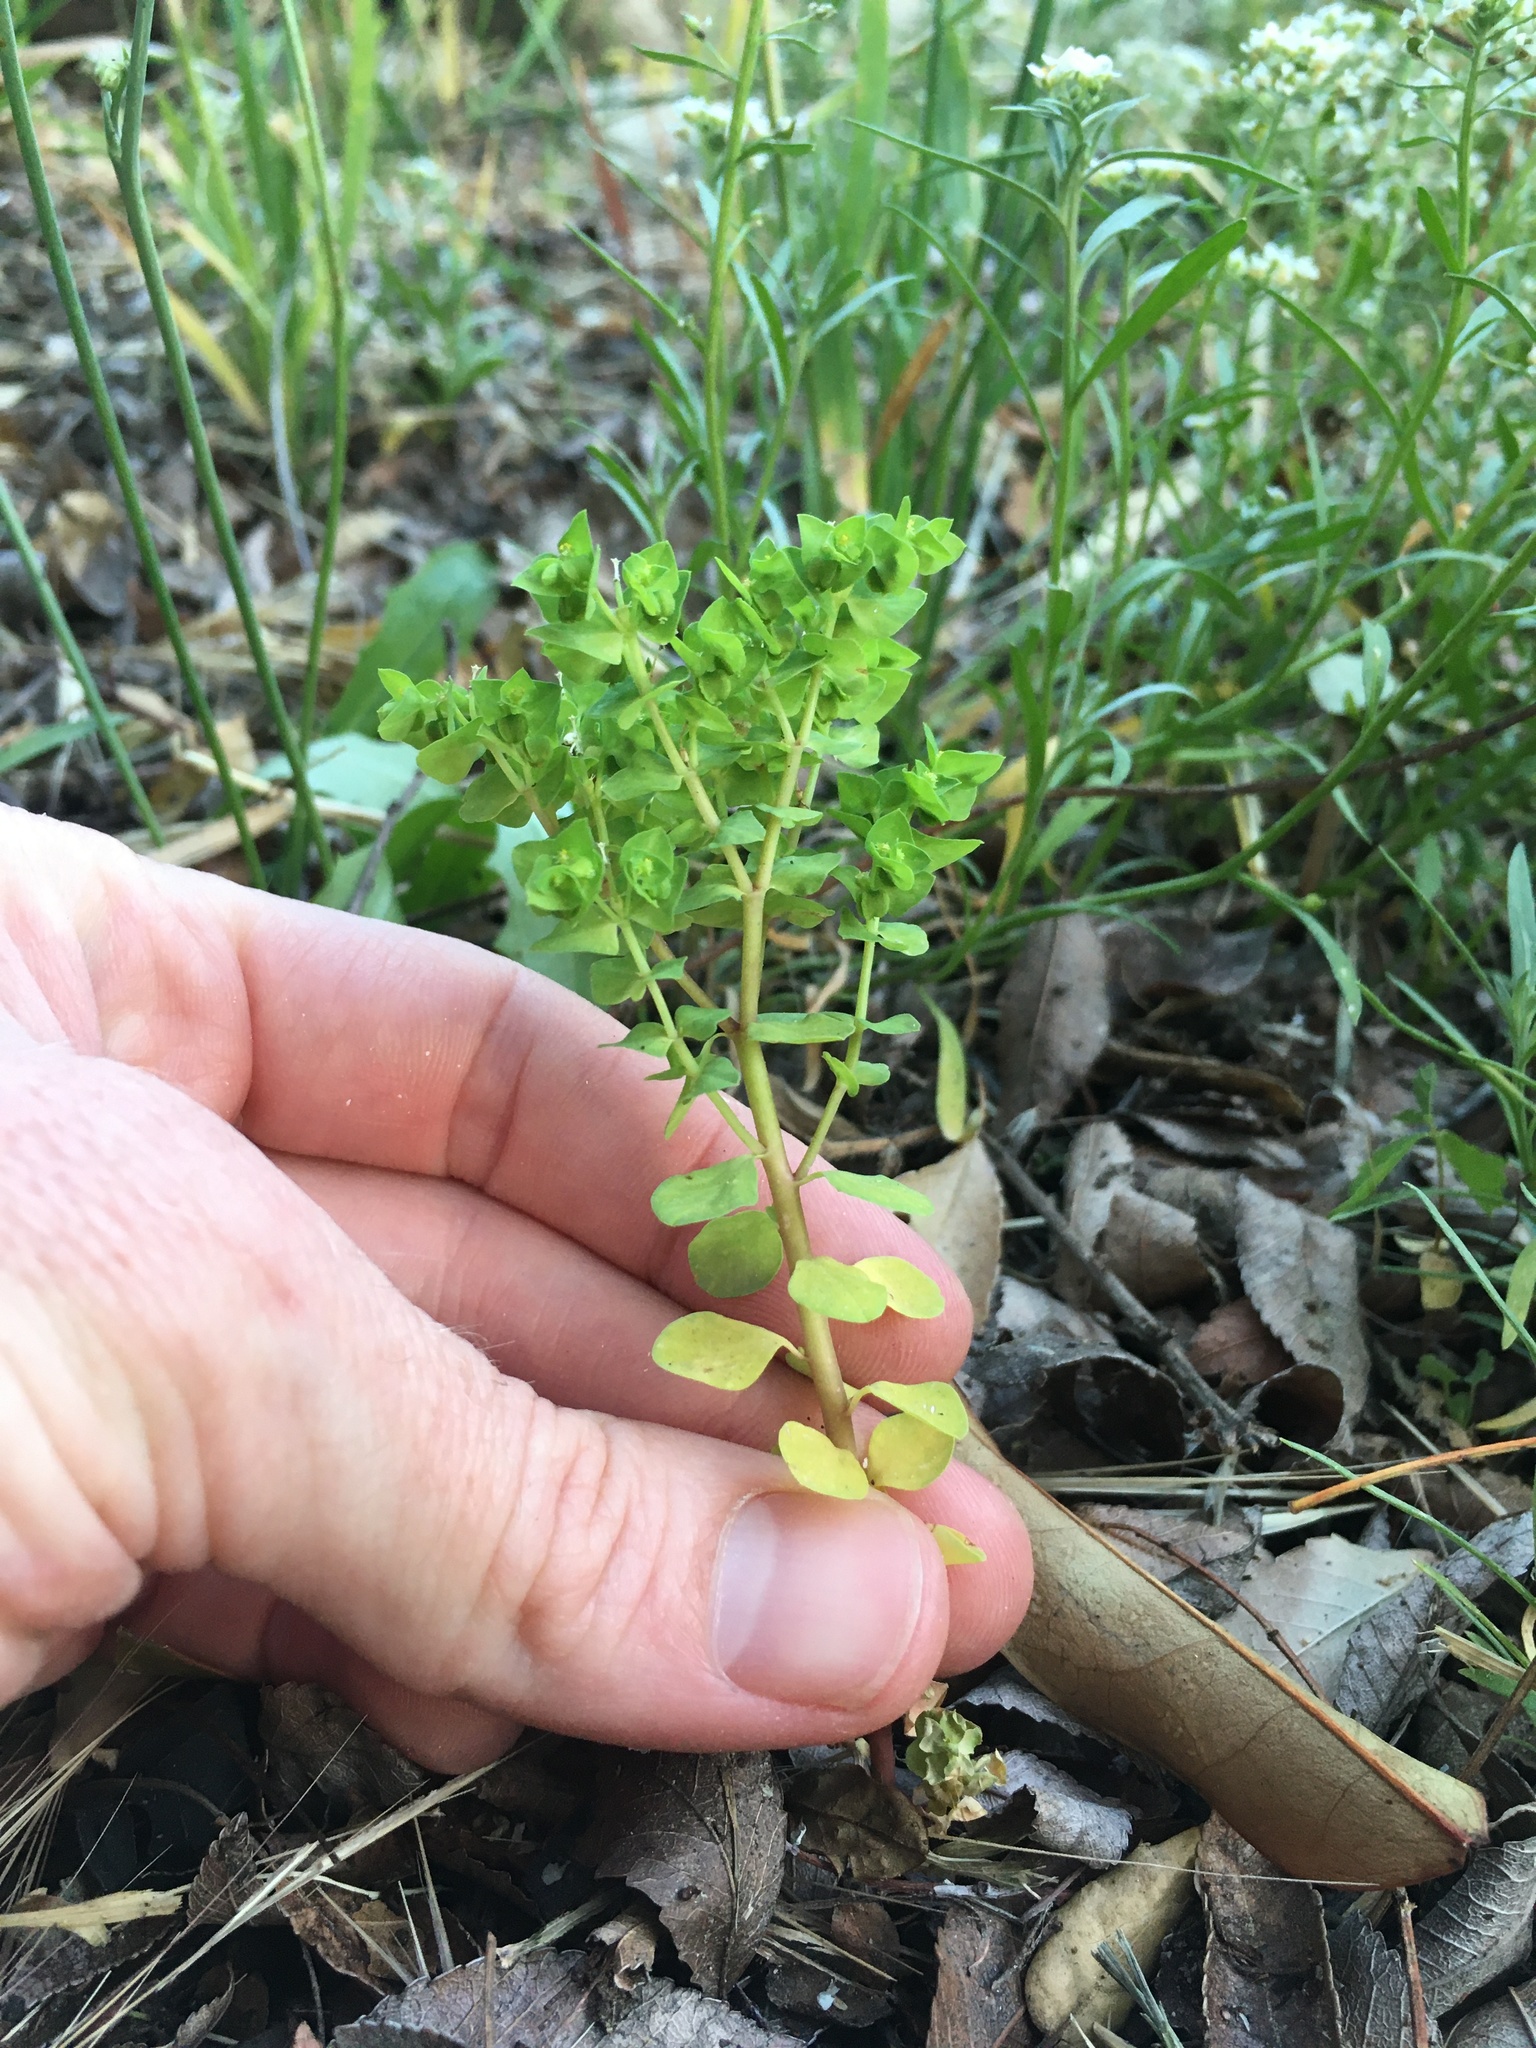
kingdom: Plantae
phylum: Tracheophyta
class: Magnoliopsida
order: Malpighiales
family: Euphorbiaceae
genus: Euphorbia
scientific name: Euphorbia peplus
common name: Petty spurge
